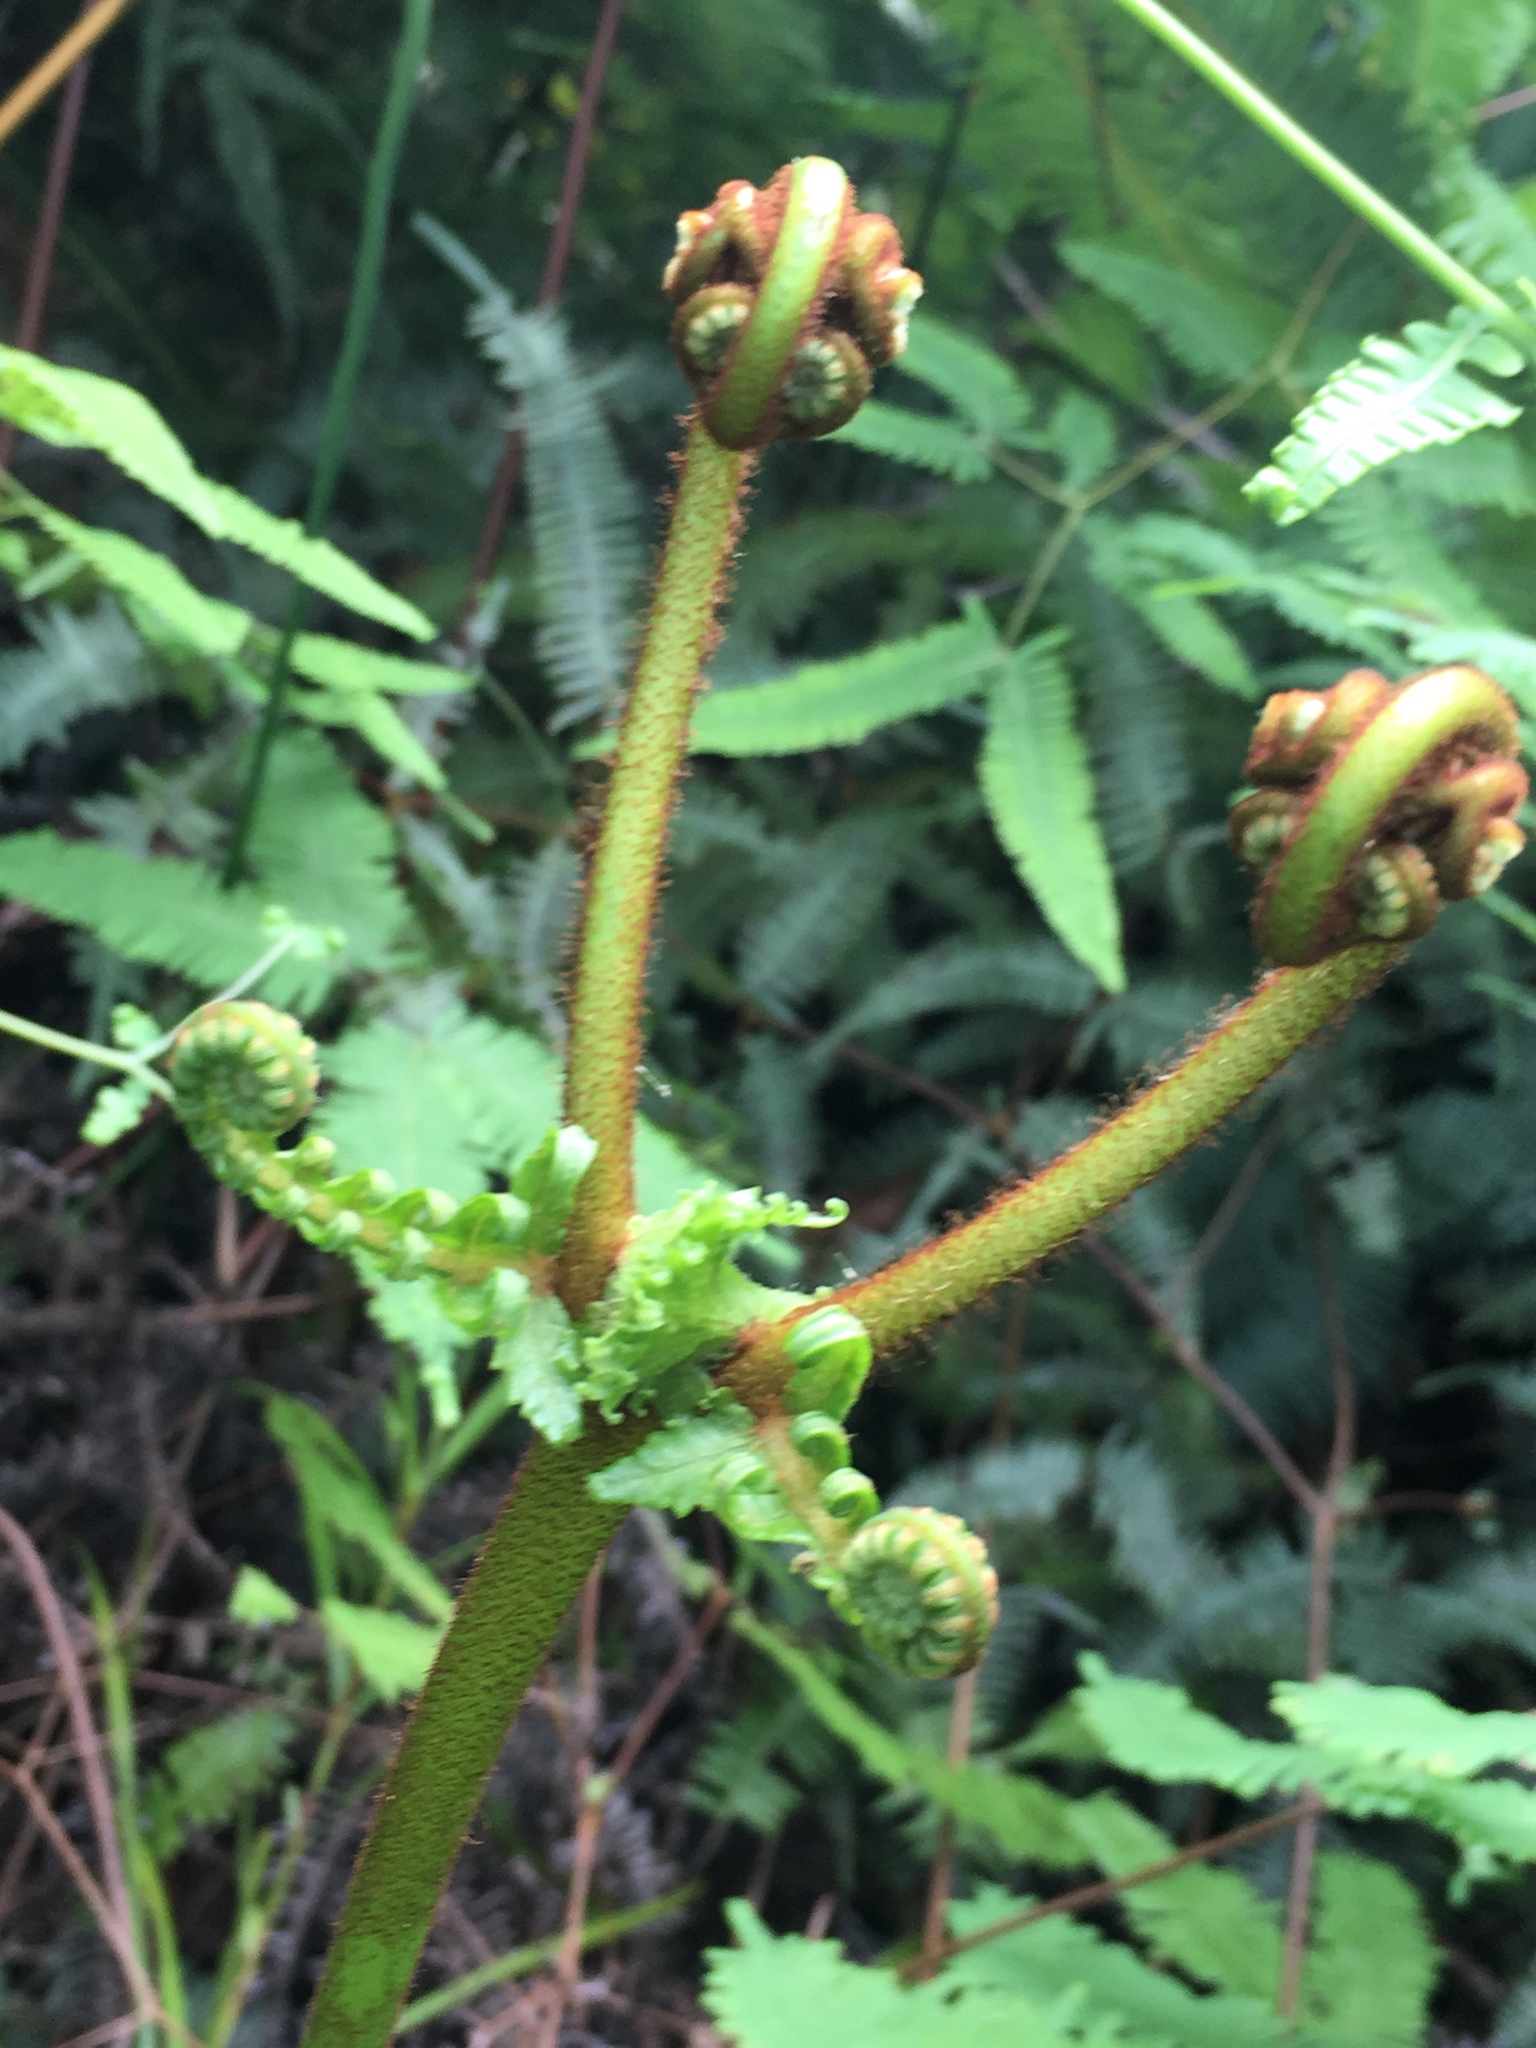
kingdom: Plantae
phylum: Tracheophyta
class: Polypodiopsida
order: Gleicheniales
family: Gleicheniaceae
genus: Dicranopteris
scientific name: Dicranopteris linearis
